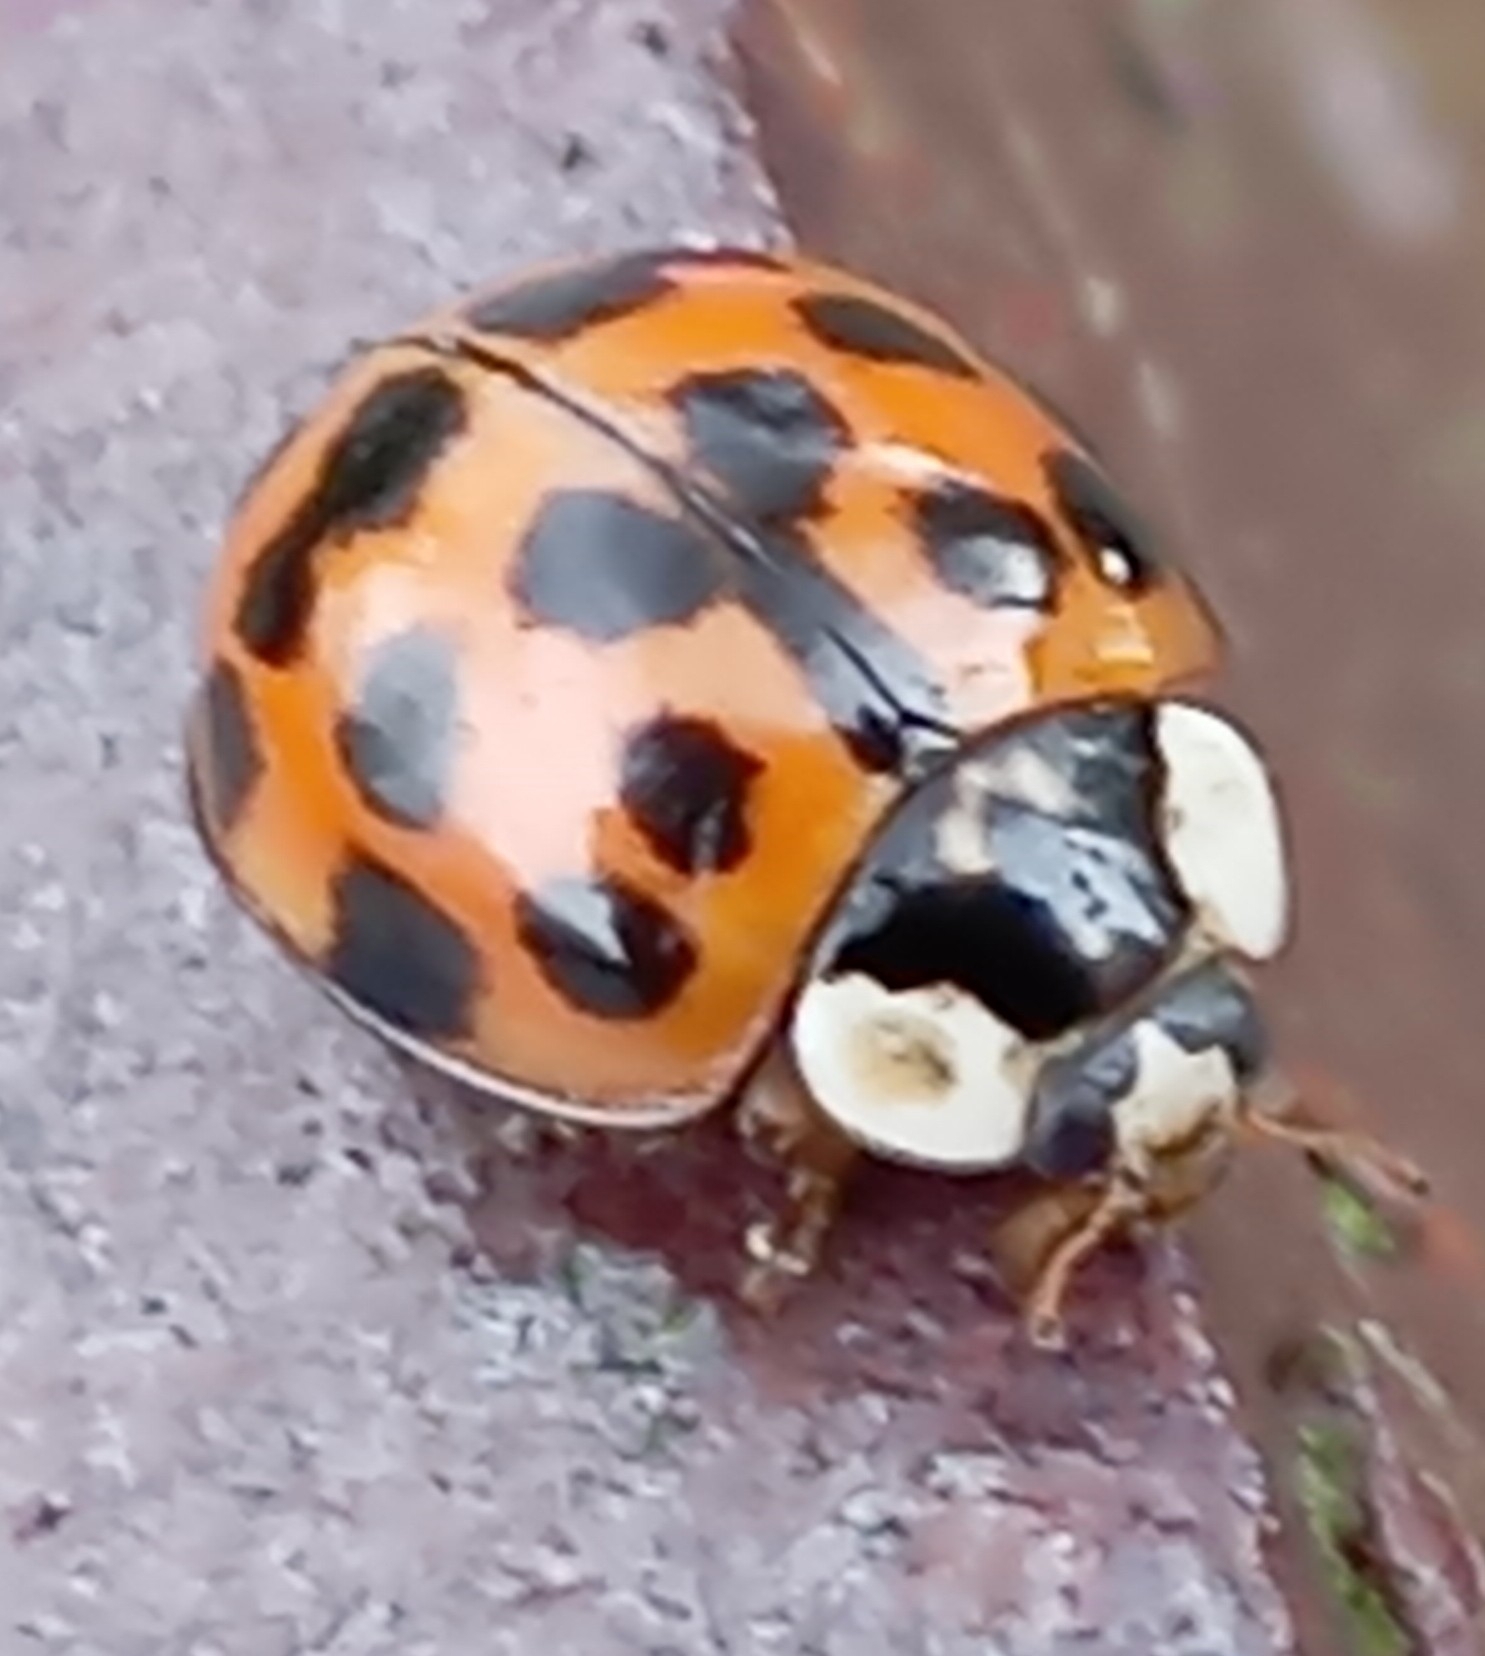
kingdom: Animalia
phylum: Arthropoda
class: Insecta
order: Coleoptera
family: Coccinellidae
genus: Harmonia
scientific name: Harmonia axyridis
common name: Harlequin ladybird
